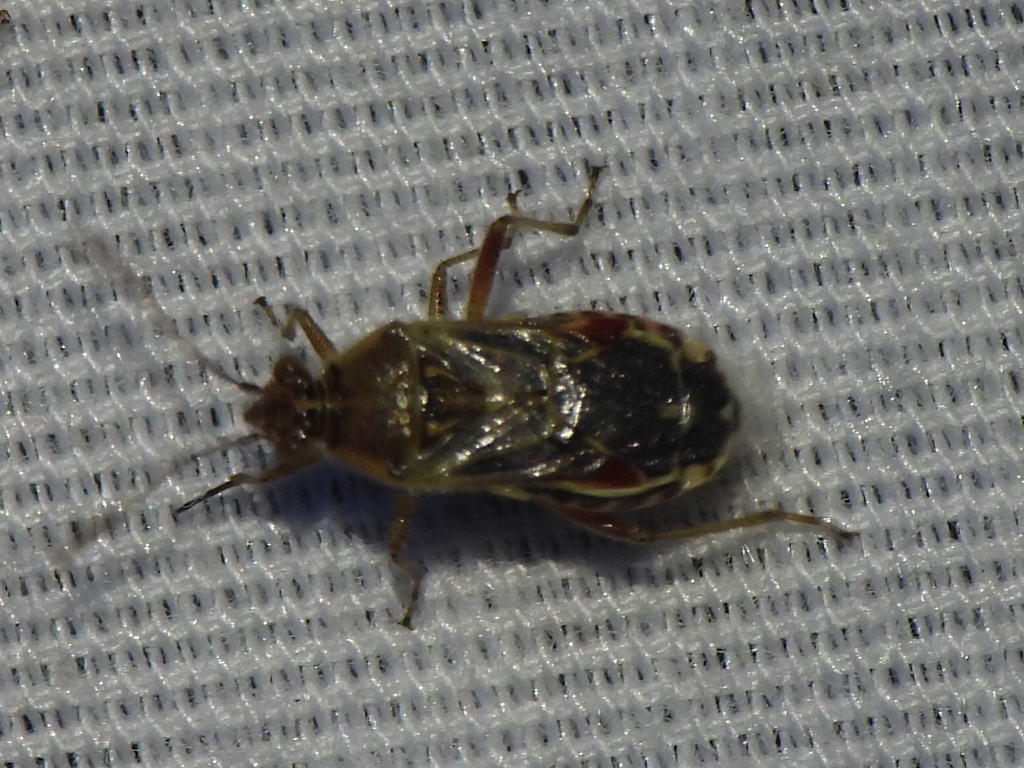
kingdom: Animalia
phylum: Arthropoda
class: Insecta
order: Hemiptera
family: Rhopalidae
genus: Liorhyssus
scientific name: Liorhyssus hyalinus
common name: Scentless plant bug
